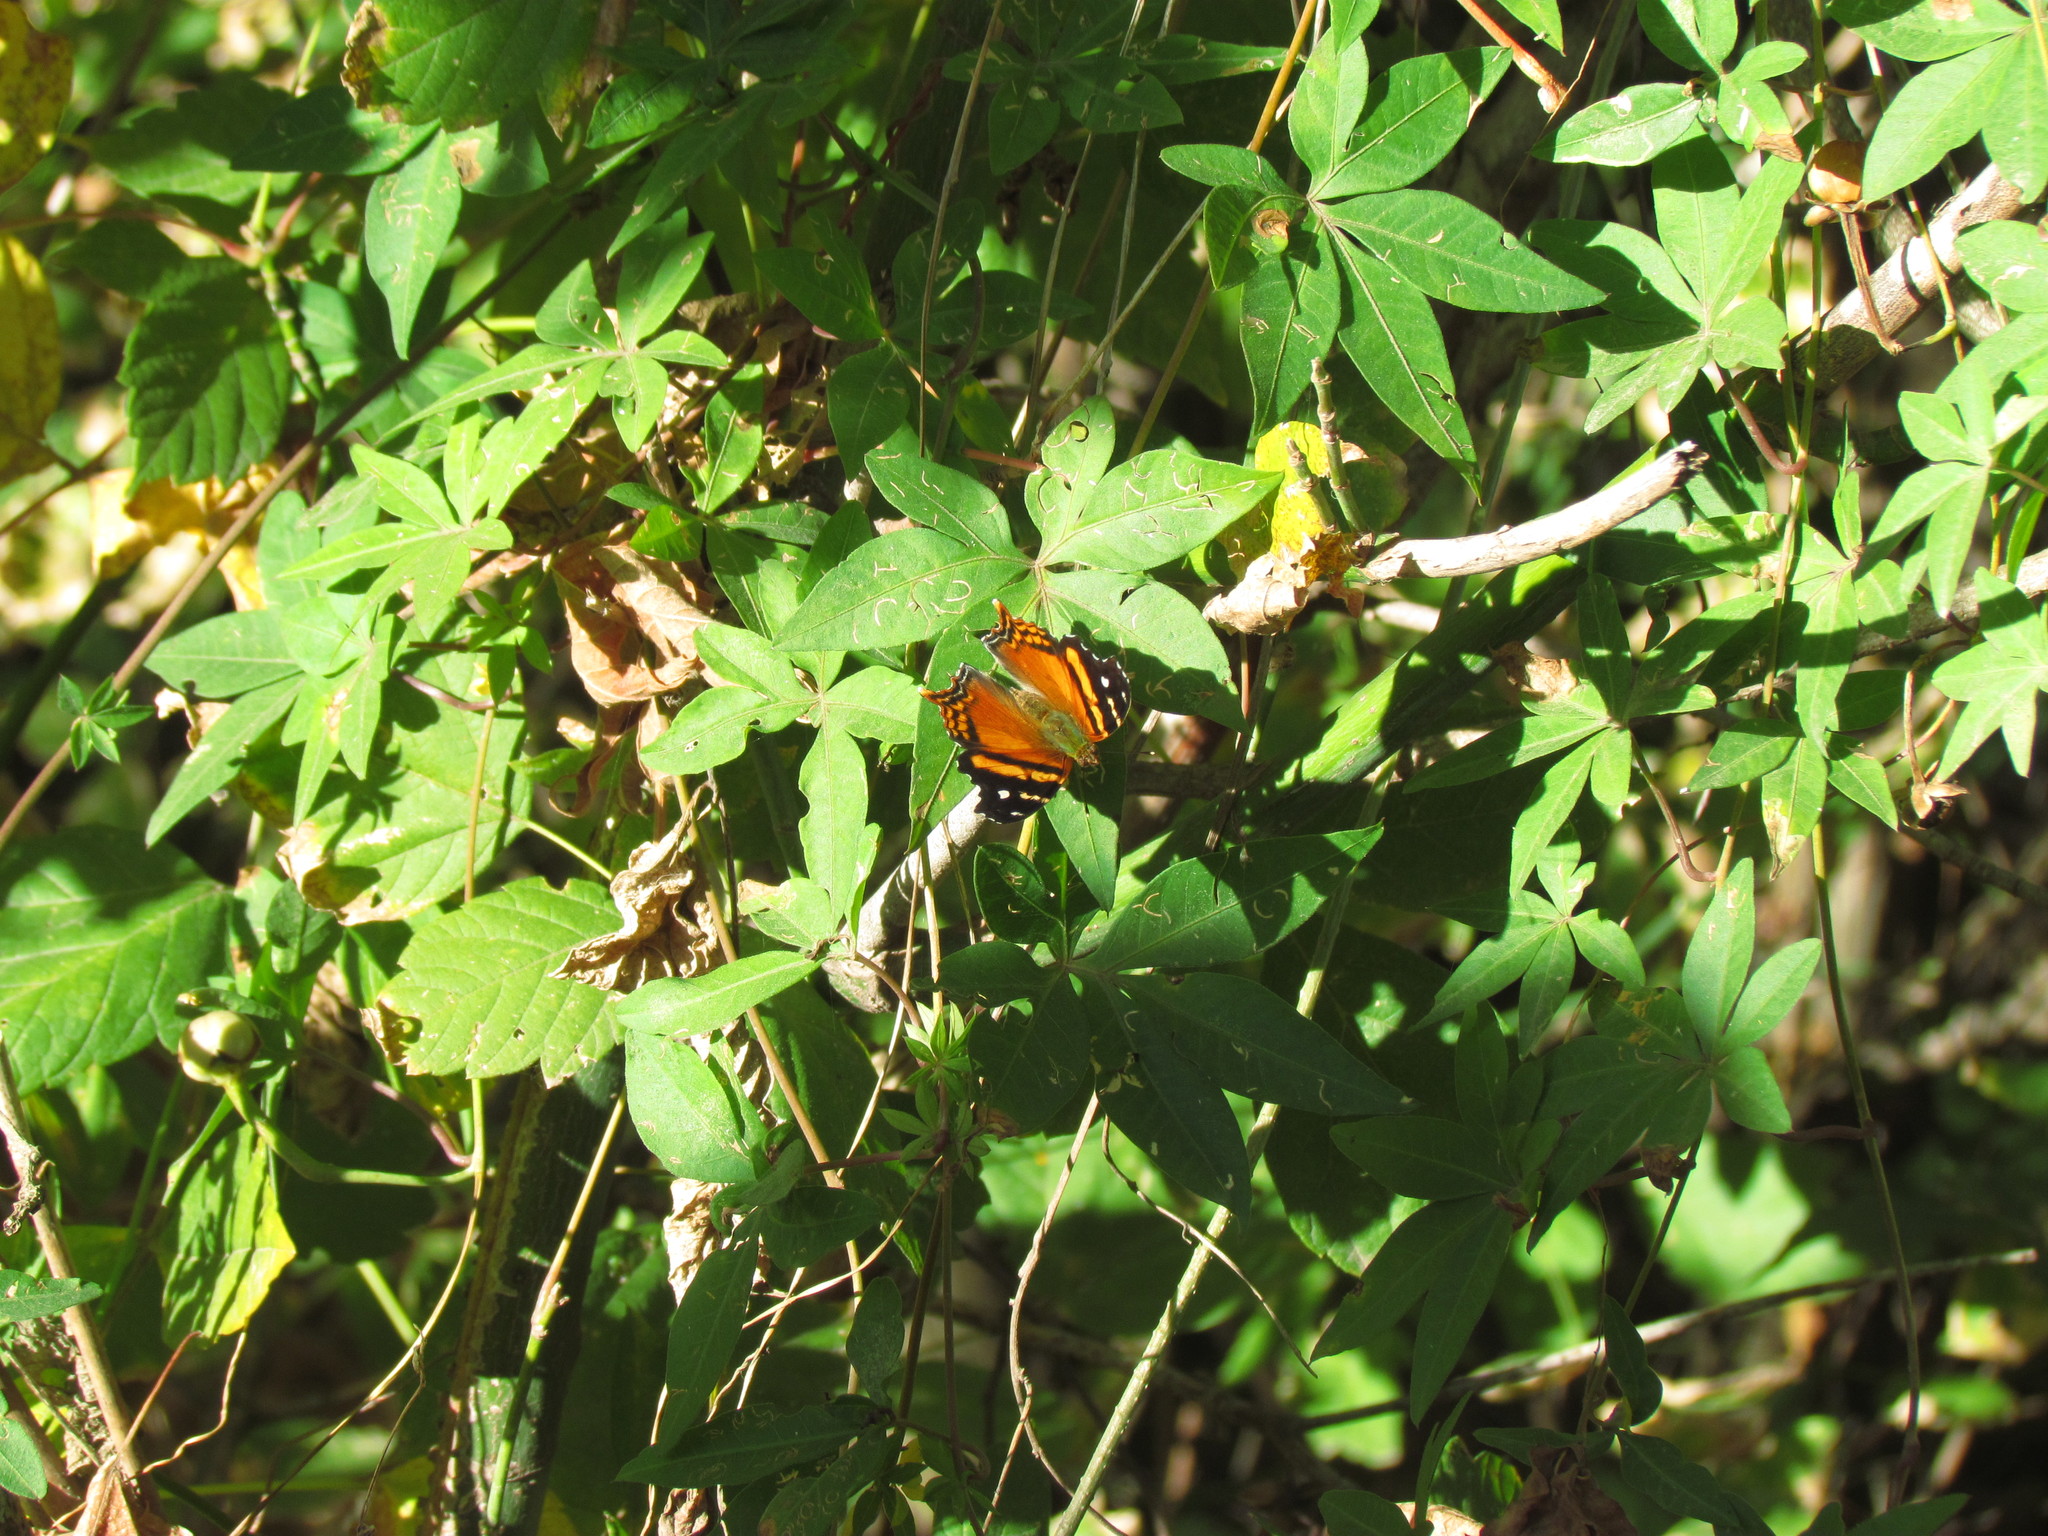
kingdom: Animalia
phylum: Arthropoda
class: Insecta
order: Lepidoptera
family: Nymphalidae
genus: Hypanartia
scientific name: Hypanartia bella
